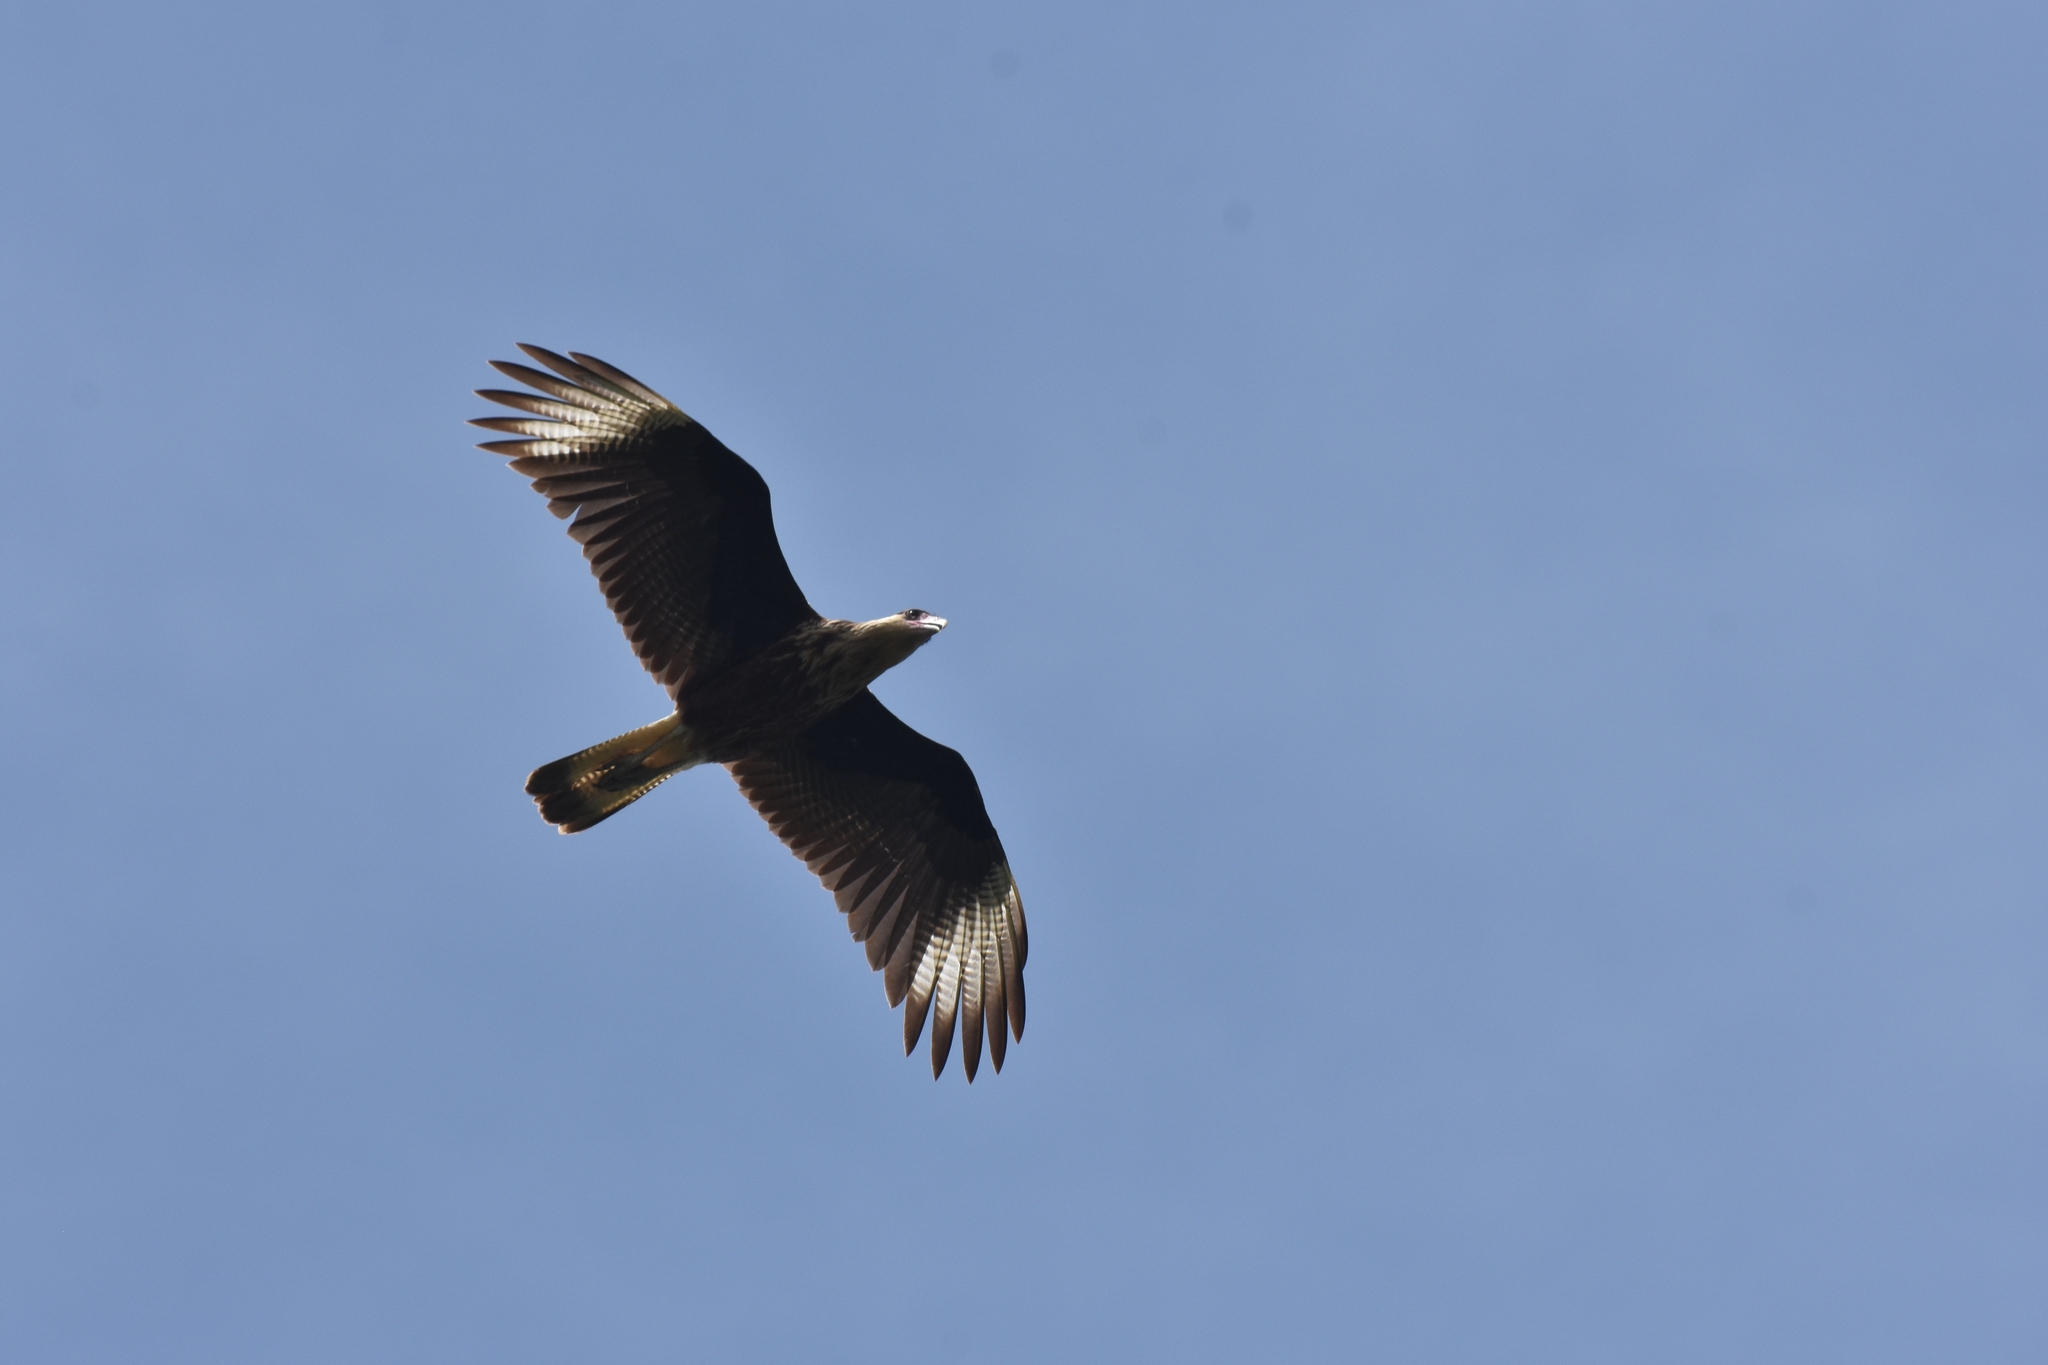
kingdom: Animalia
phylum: Chordata
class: Aves
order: Falconiformes
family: Falconidae
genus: Caracara
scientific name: Caracara plancus
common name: Southern caracara
